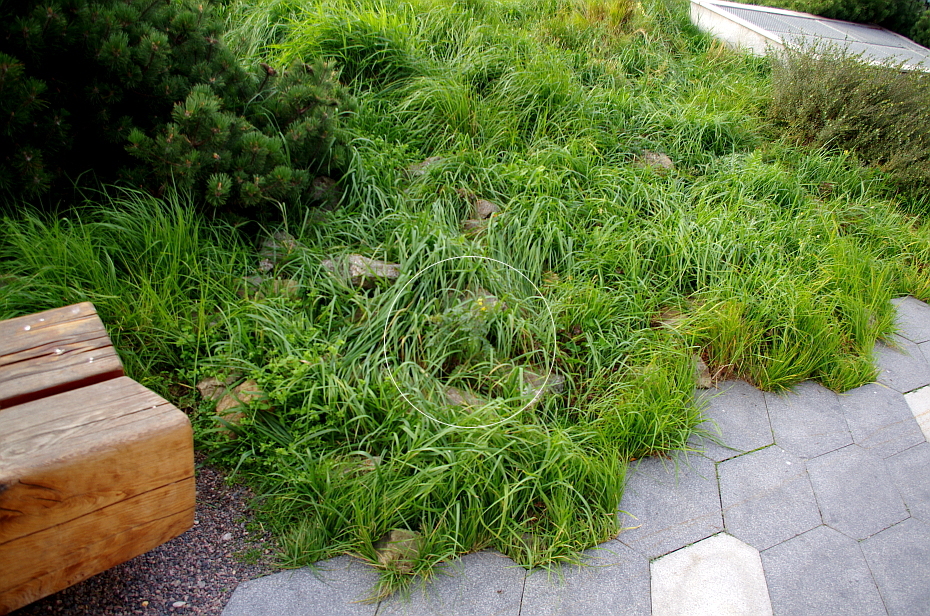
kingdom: Plantae
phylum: Tracheophyta
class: Magnoliopsida
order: Solanales
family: Solanaceae
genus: Solanum
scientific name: Solanum lycopersicum
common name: Garden tomato
